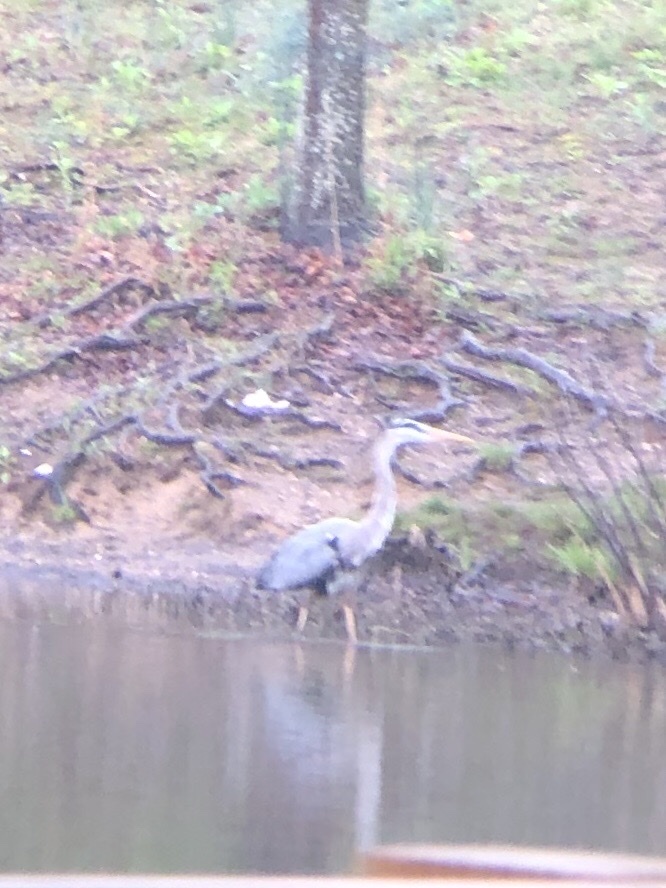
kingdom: Animalia
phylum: Chordata
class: Aves
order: Pelecaniformes
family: Ardeidae
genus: Ardea
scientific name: Ardea herodias
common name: Great blue heron
